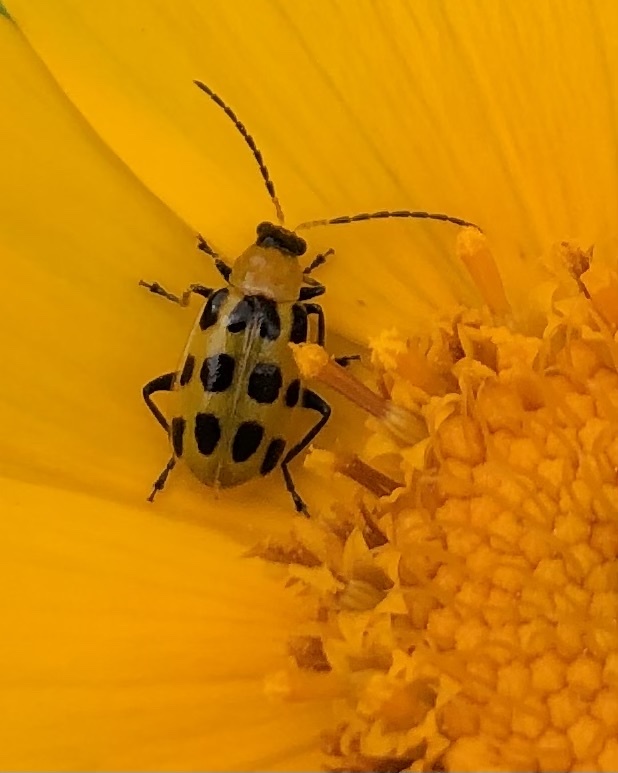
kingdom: Animalia
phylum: Arthropoda
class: Insecta
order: Coleoptera
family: Chrysomelidae
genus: Diabrotica
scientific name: Diabrotica undecimpunctata
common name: Spotted cucumber beetle
